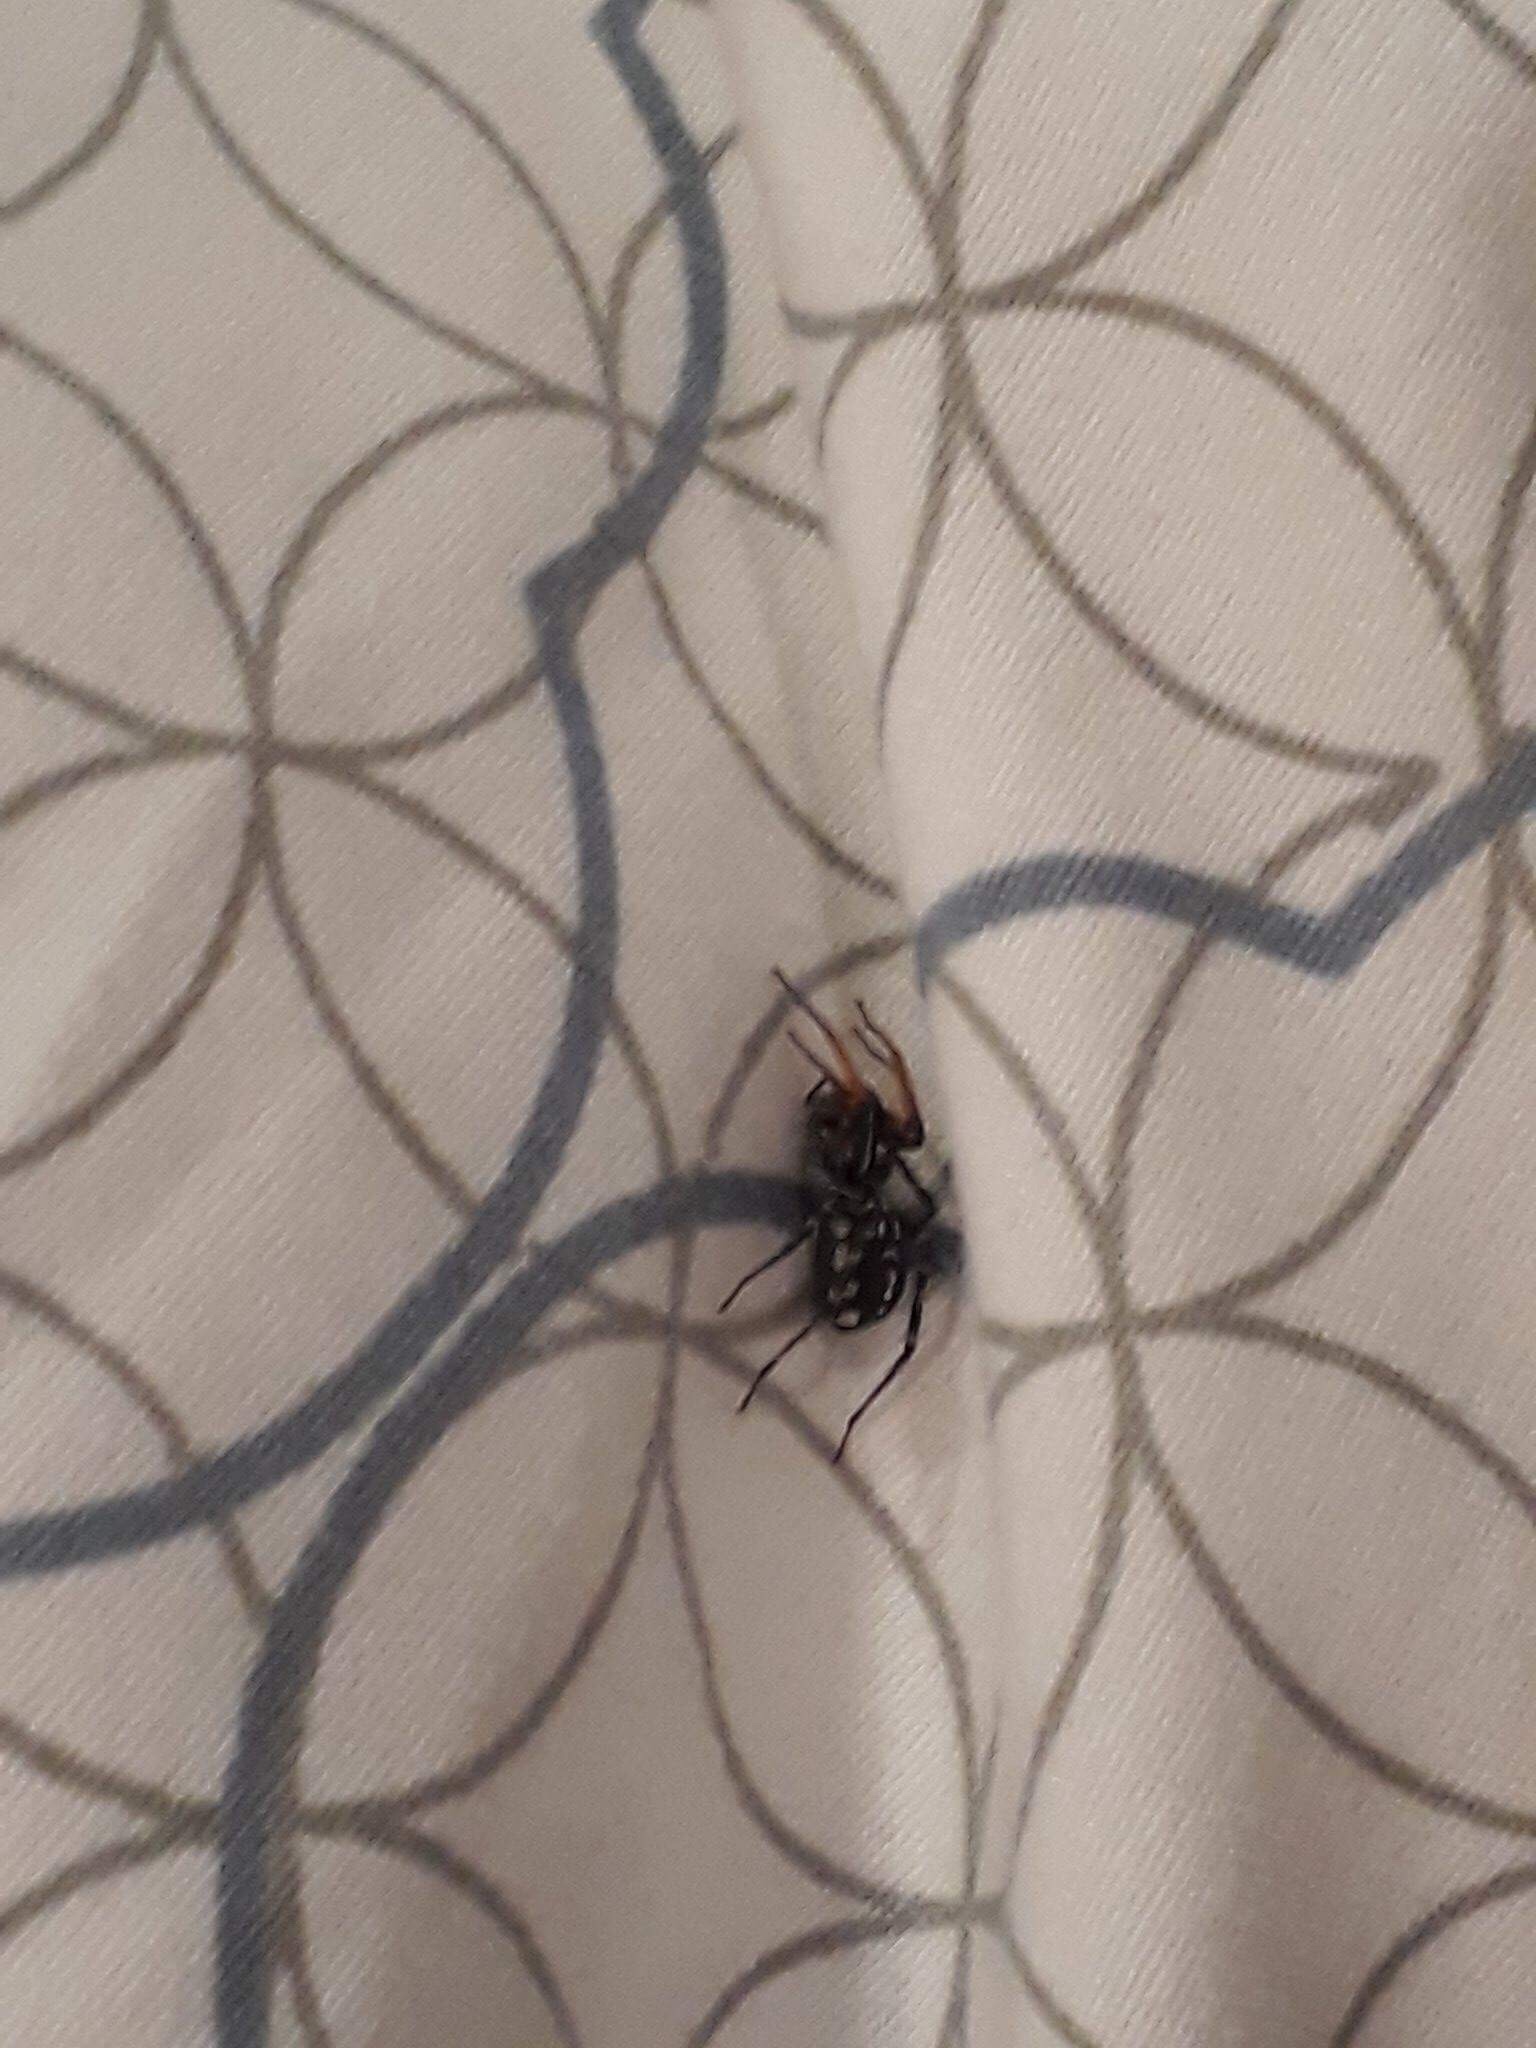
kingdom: Animalia
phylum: Arthropoda
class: Arachnida
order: Araneae
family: Corinnidae
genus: Nyssus
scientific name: Nyssus coloripes
